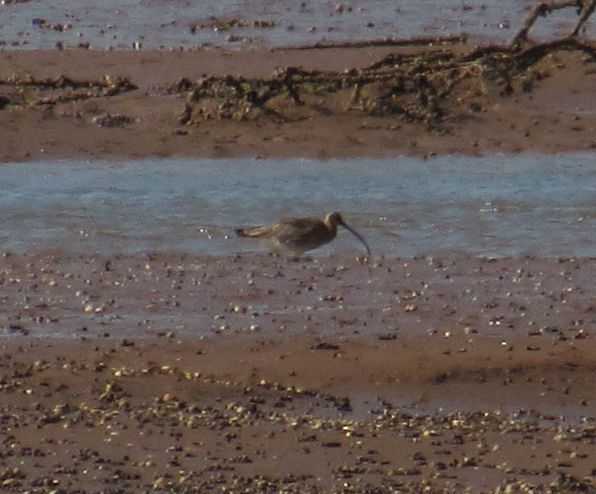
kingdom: Animalia
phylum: Chordata
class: Aves
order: Charadriiformes
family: Scolopacidae
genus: Numenius
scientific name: Numenius arquata
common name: Eurasian curlew
